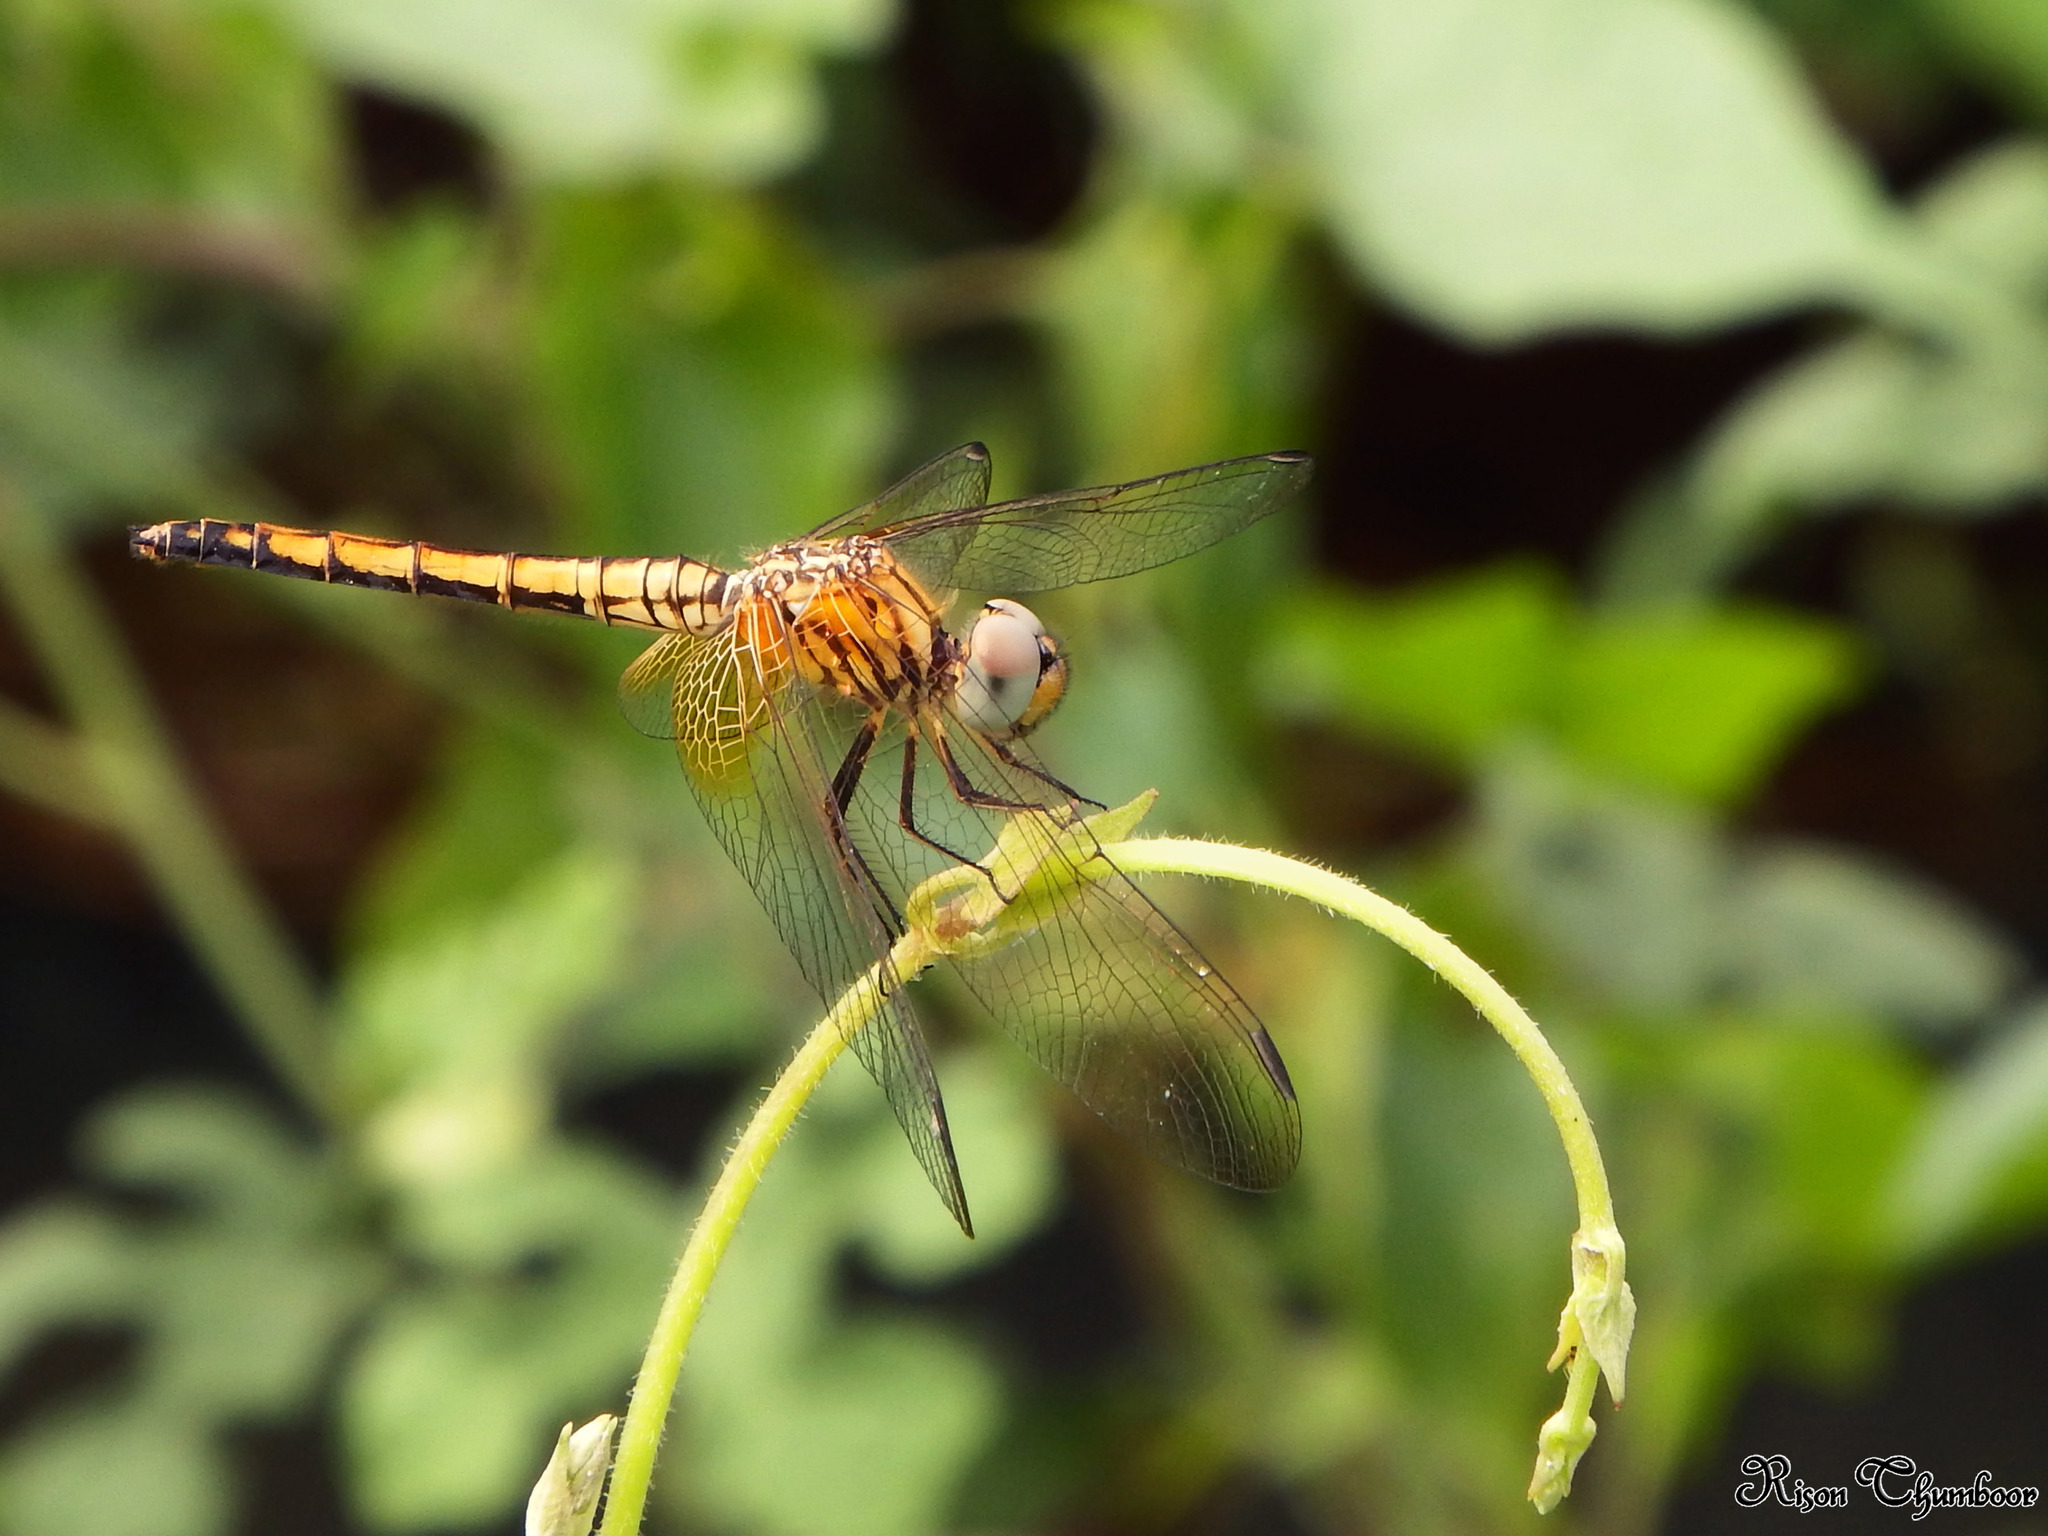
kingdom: Animalia
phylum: Arthropoda
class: Insecta
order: Odonata
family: Libellulidae
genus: Trithemis
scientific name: Trithemis aurora
